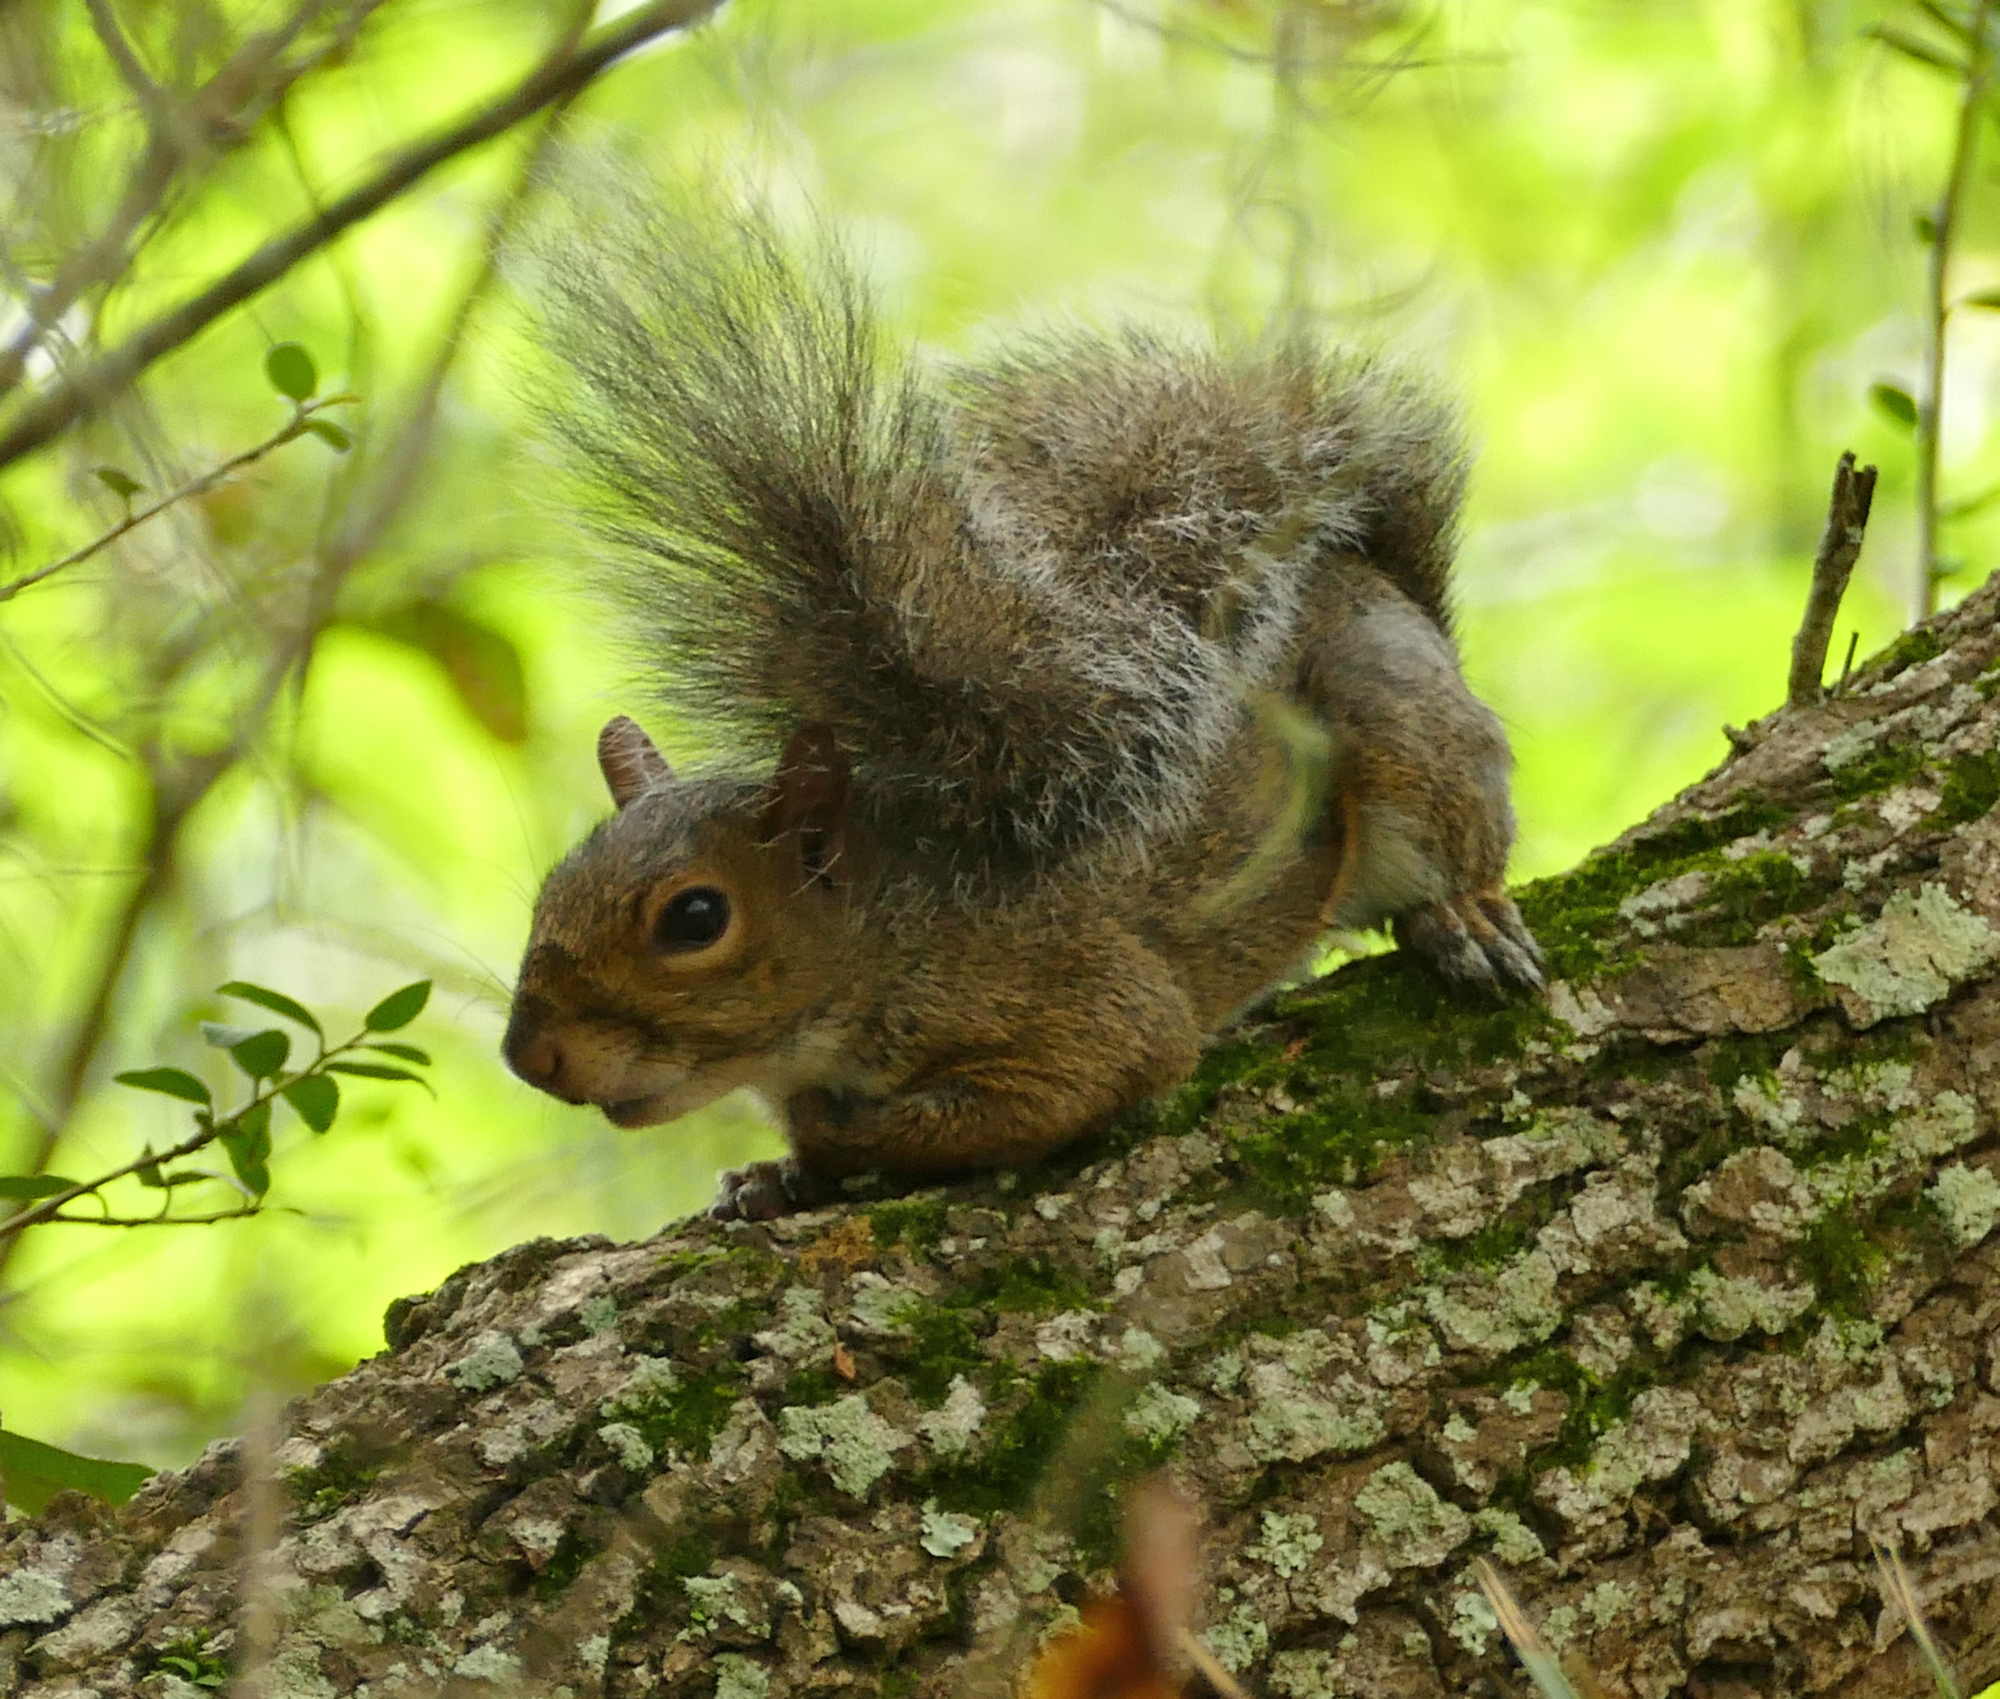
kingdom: Animalia
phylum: Chordata
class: Mammalia
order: Rodentia
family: Sciuridae
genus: Sciurus
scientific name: Sciurus carolinensis
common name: Eastern gray squirrel
